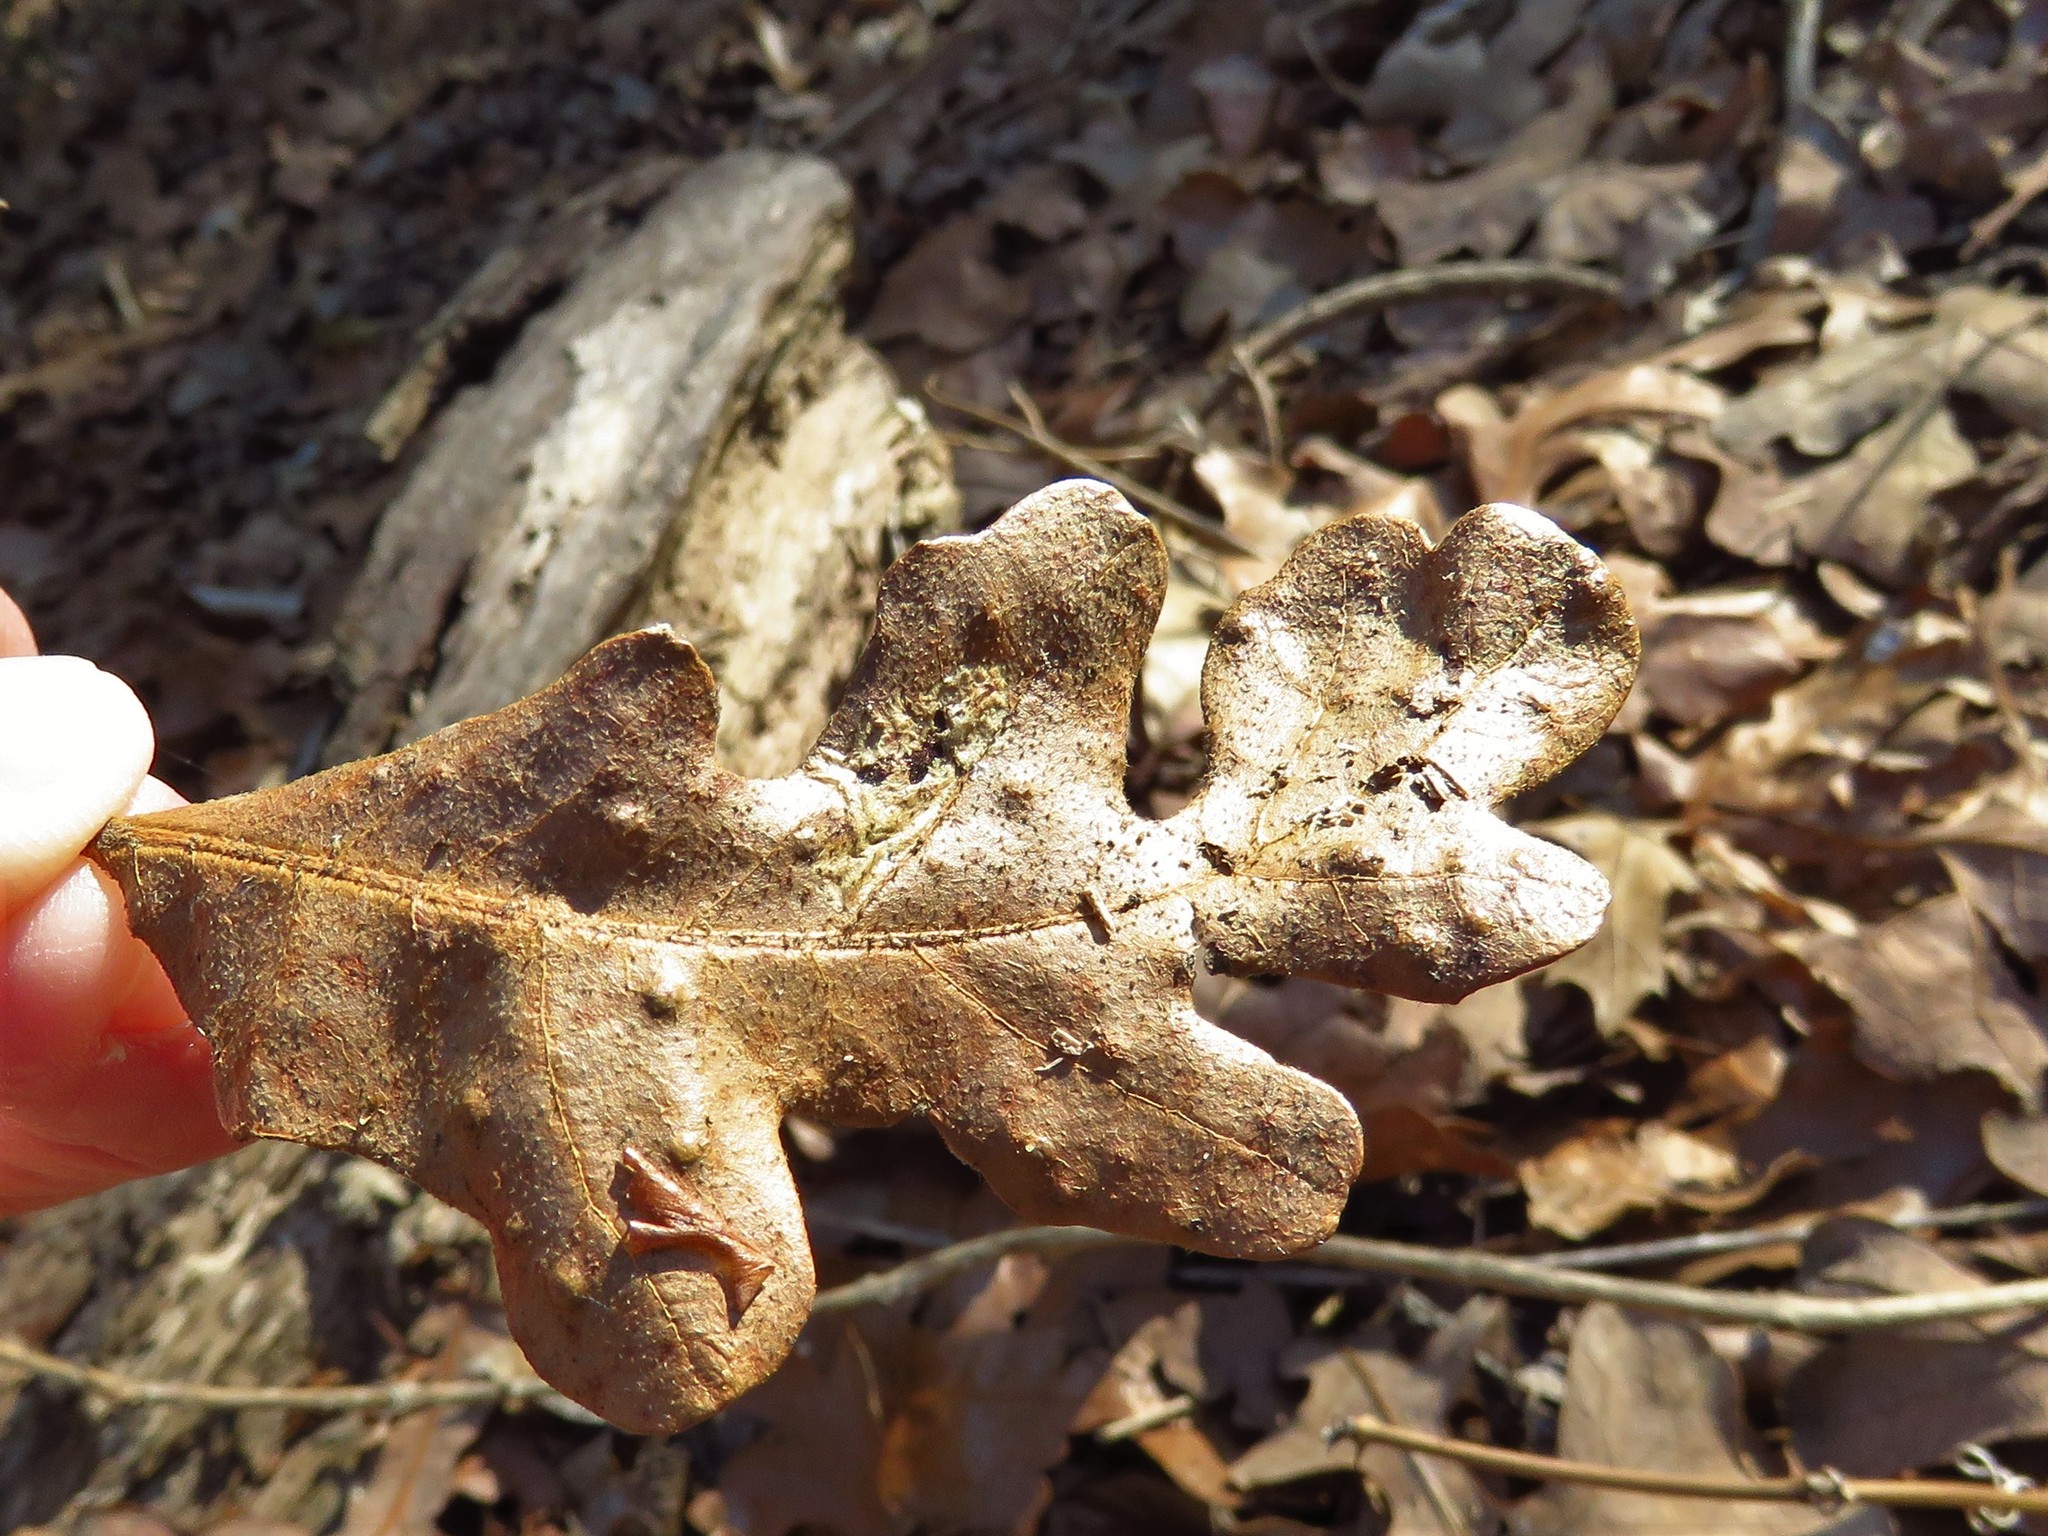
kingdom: Animalia
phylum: Arthropoda
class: Insecta
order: Hymenoptera
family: Cynipidae
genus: Neuroterus
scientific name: Neuroterus quercusverrucarum
